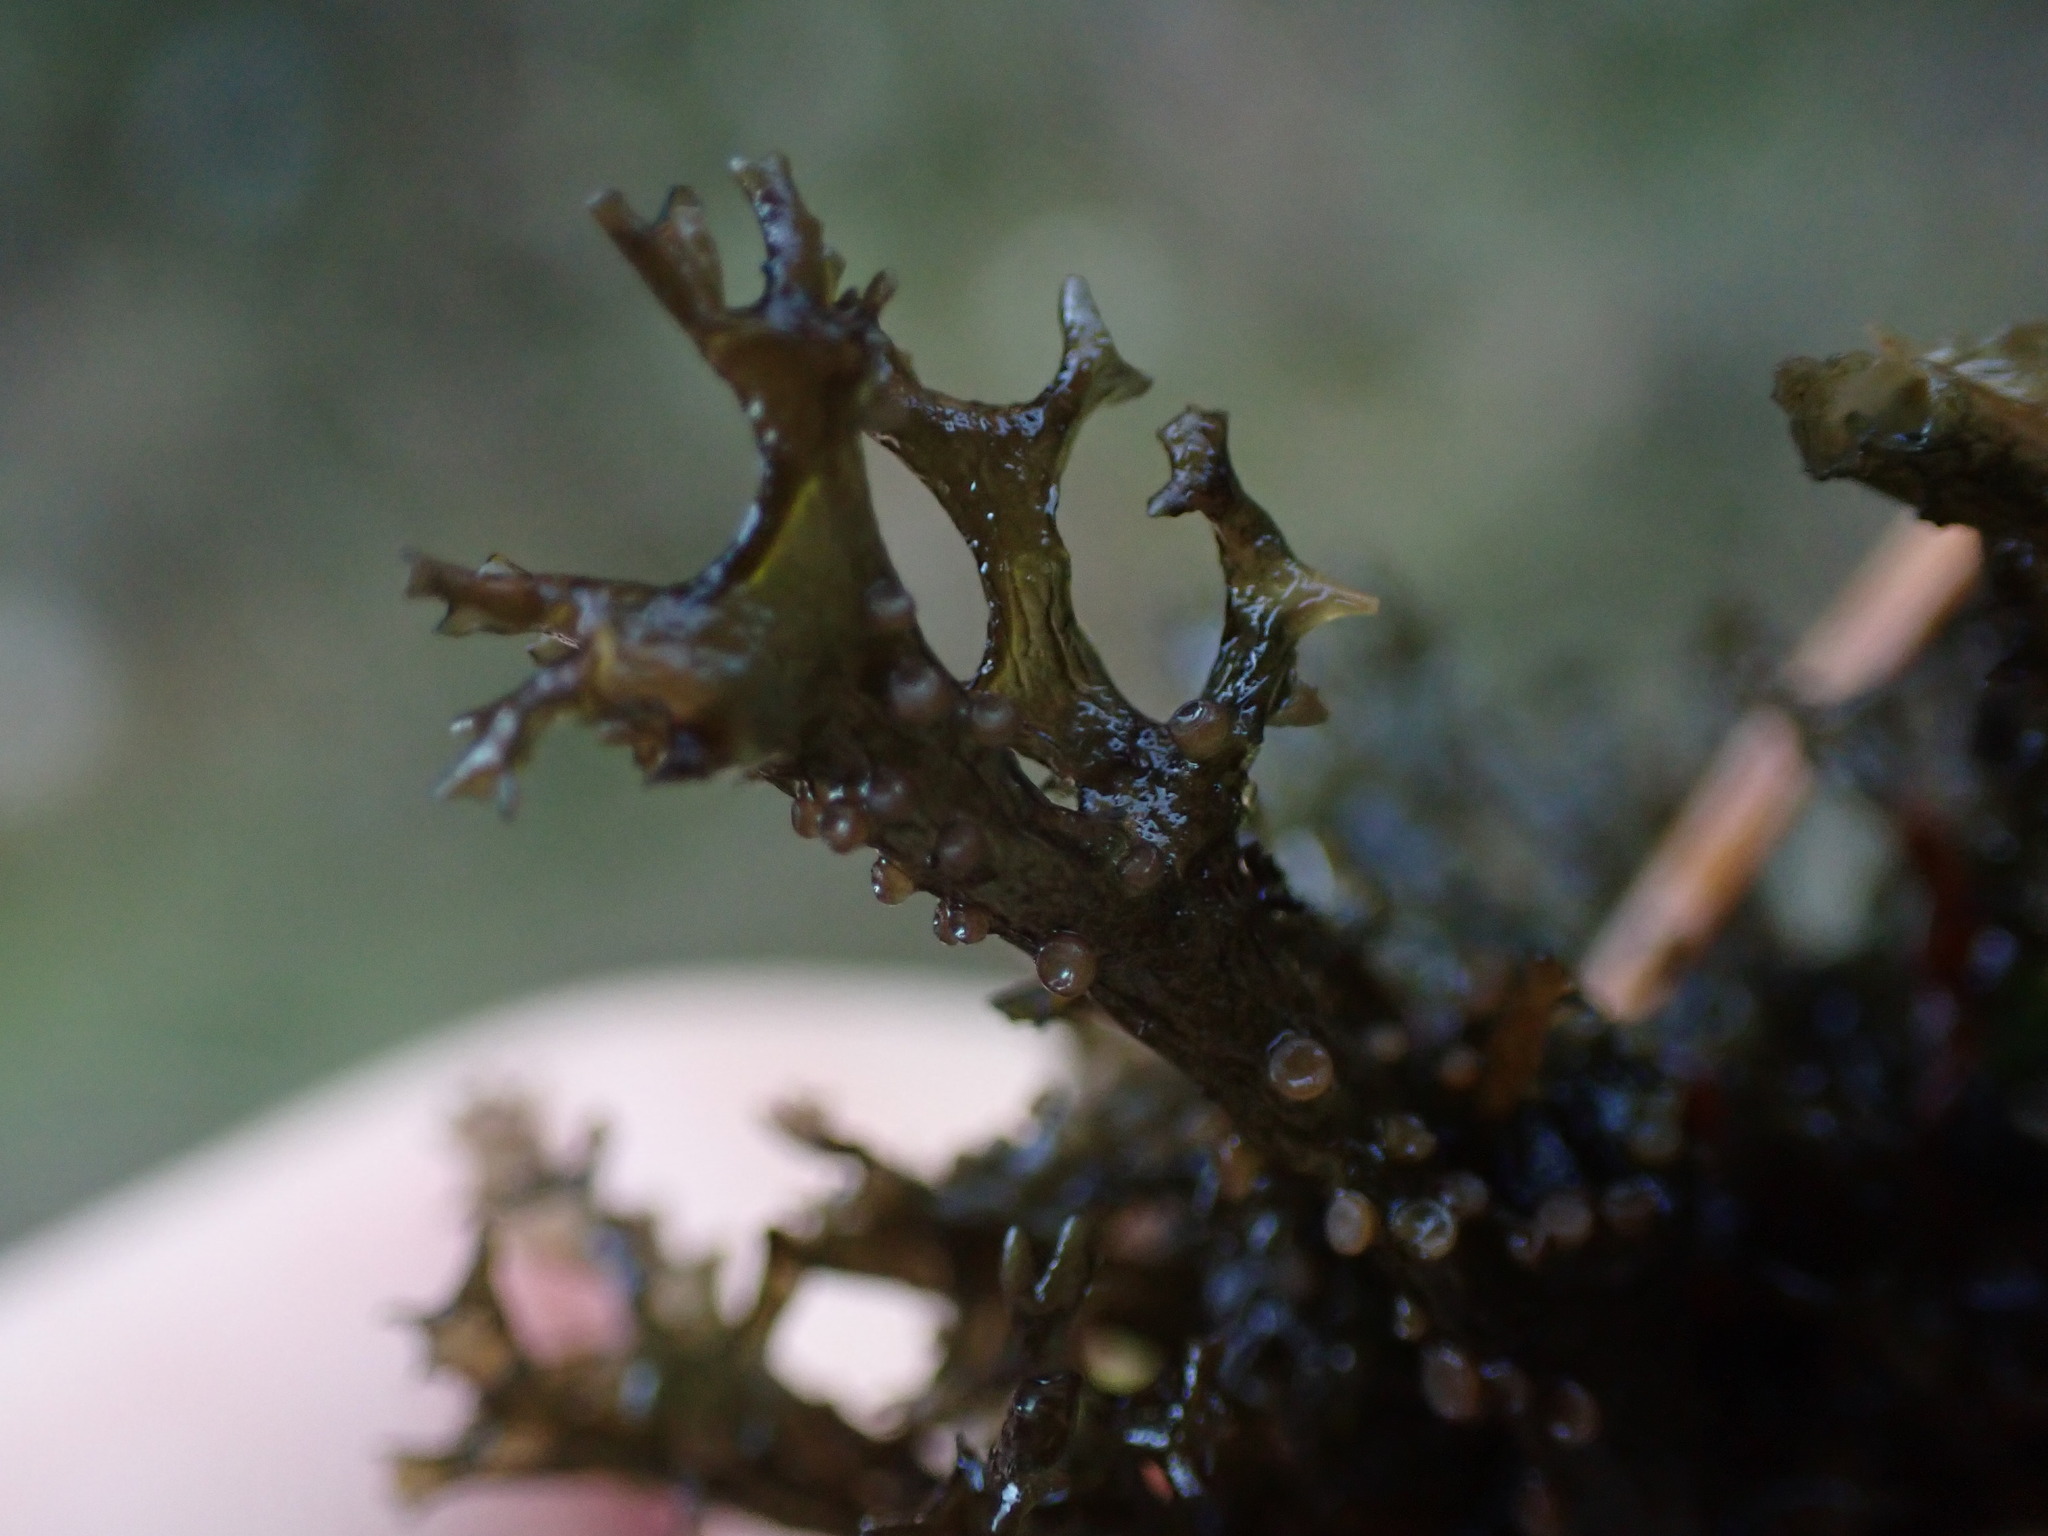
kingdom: Fungi
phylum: Ascomycota
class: Lecanoromycetes
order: Peltigerales
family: Collemataceae
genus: Scytinium
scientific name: Scytinium palmatum
